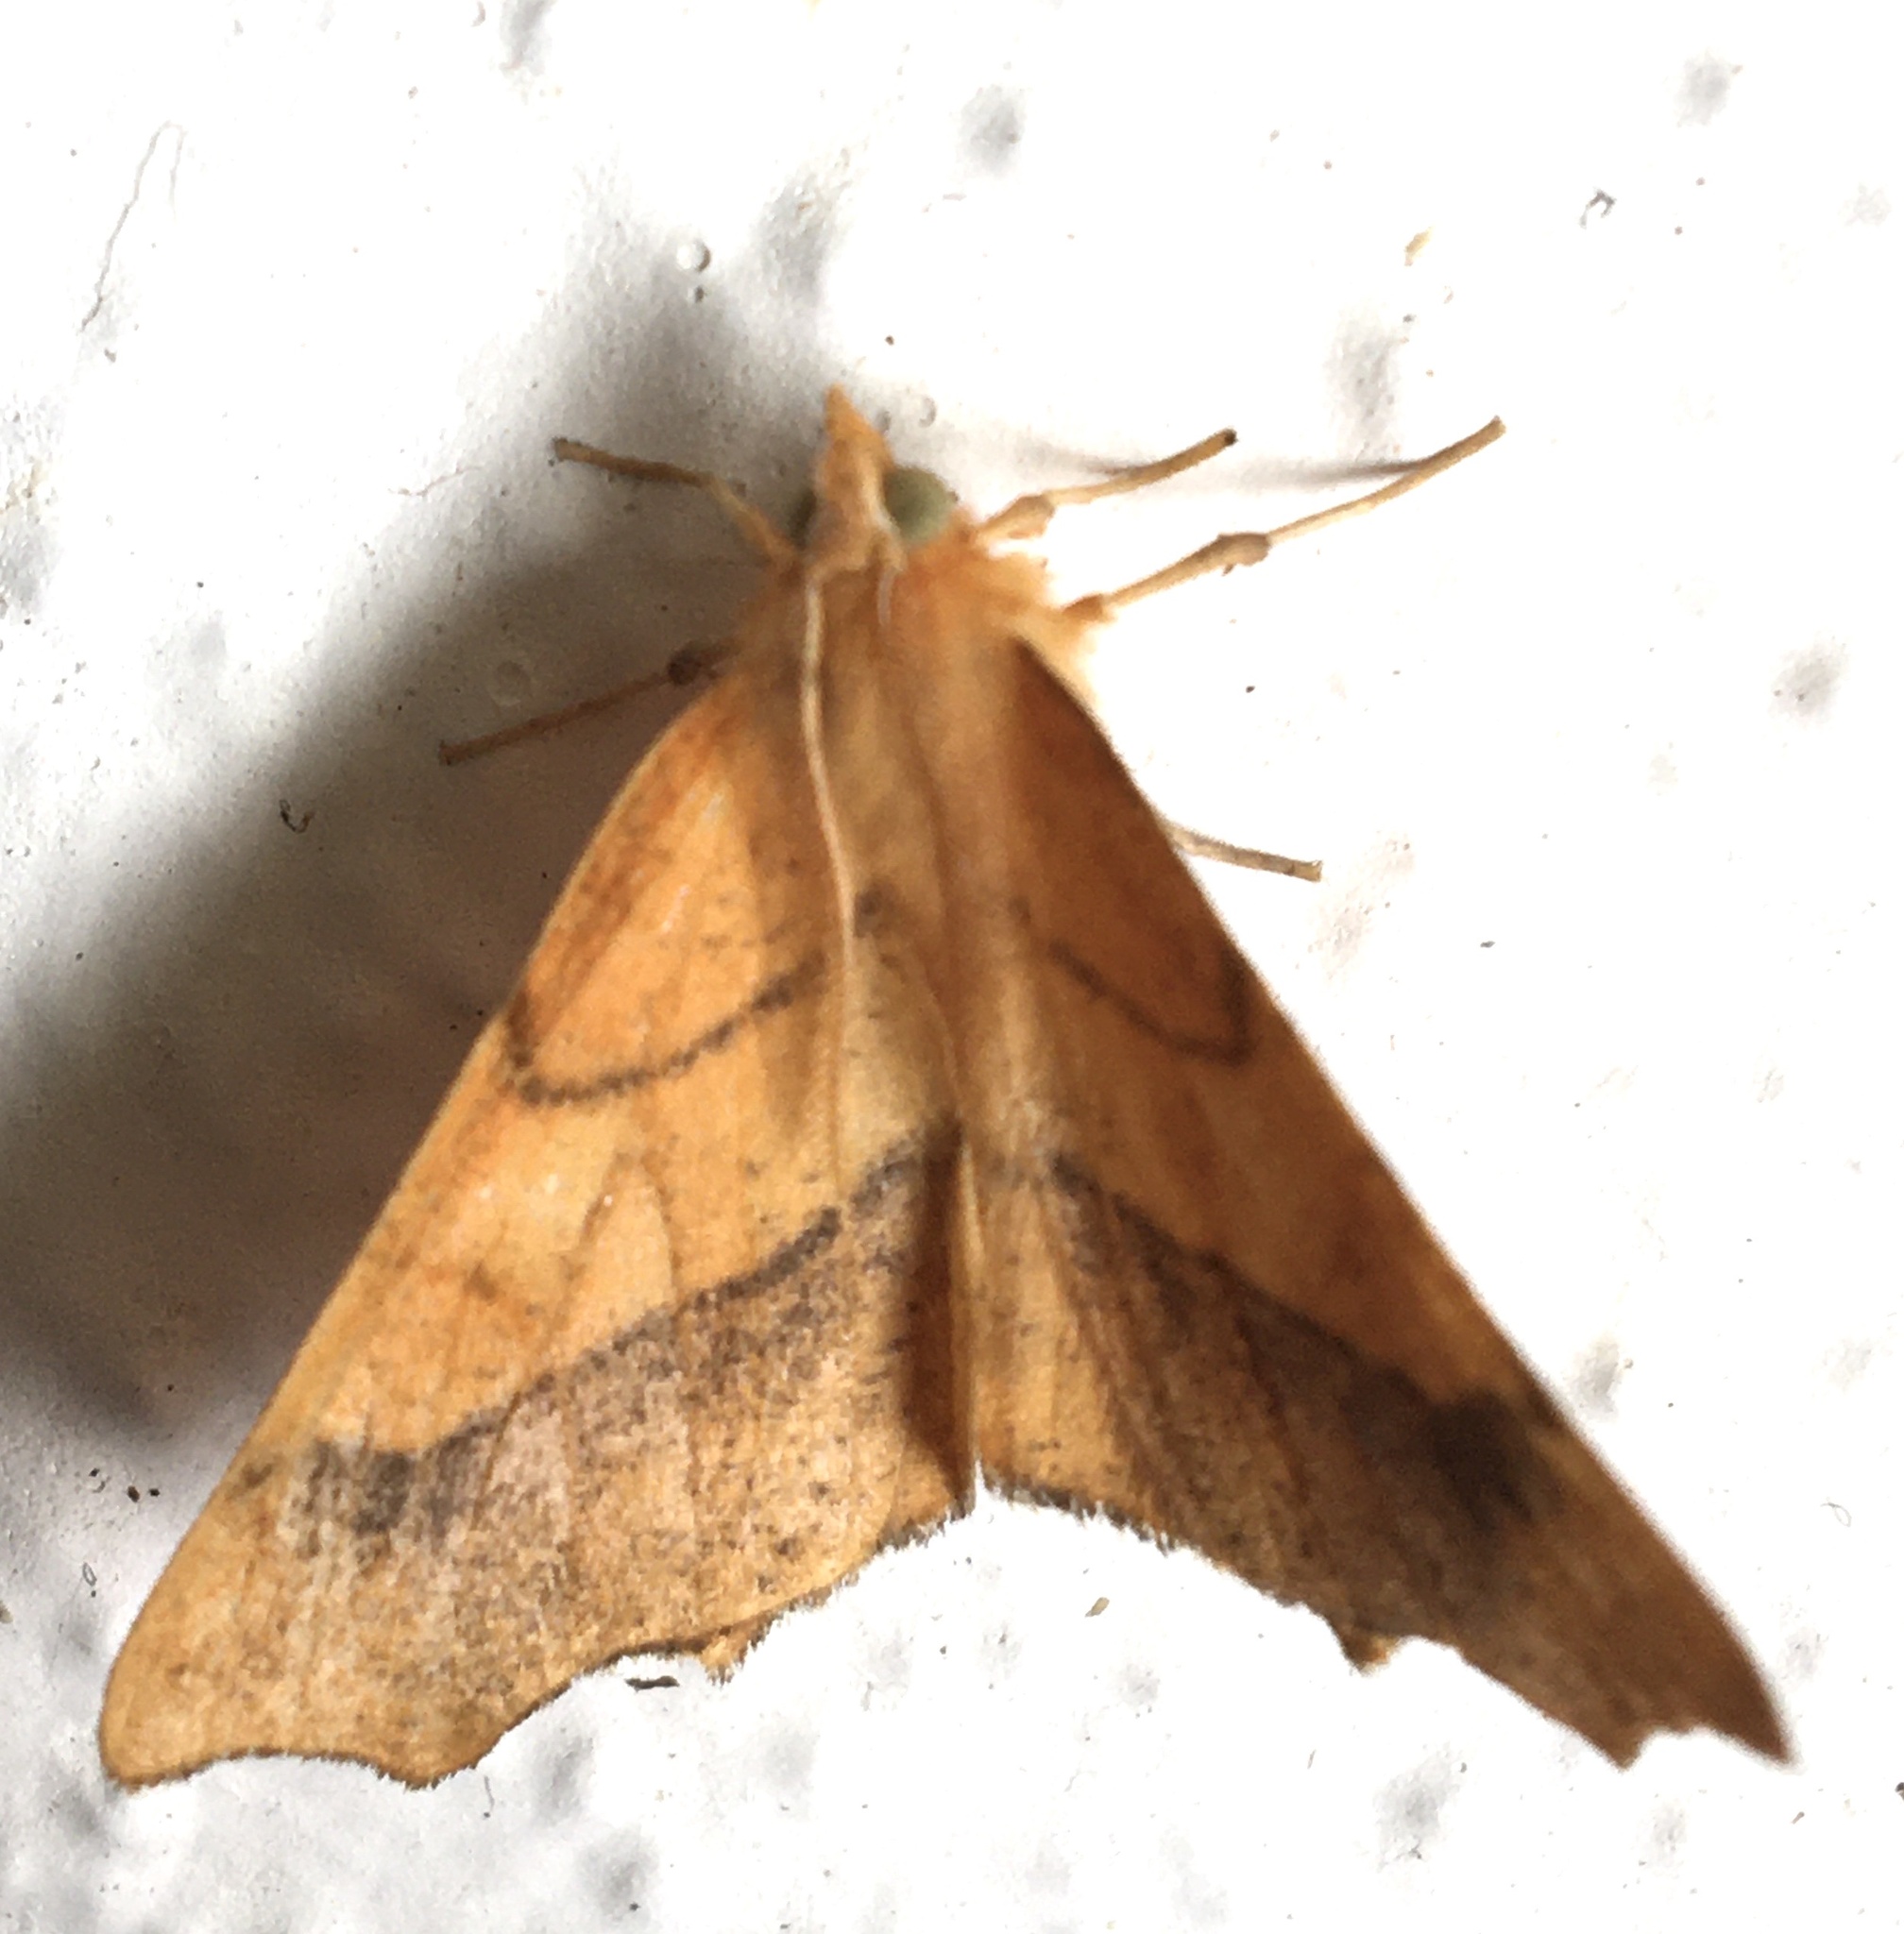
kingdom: Animalia
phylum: Arthropoda
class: Insecta
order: Lepidoptera
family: Geometridae
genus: Ennomos
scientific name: Ennomos quercinaria
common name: August thorn
